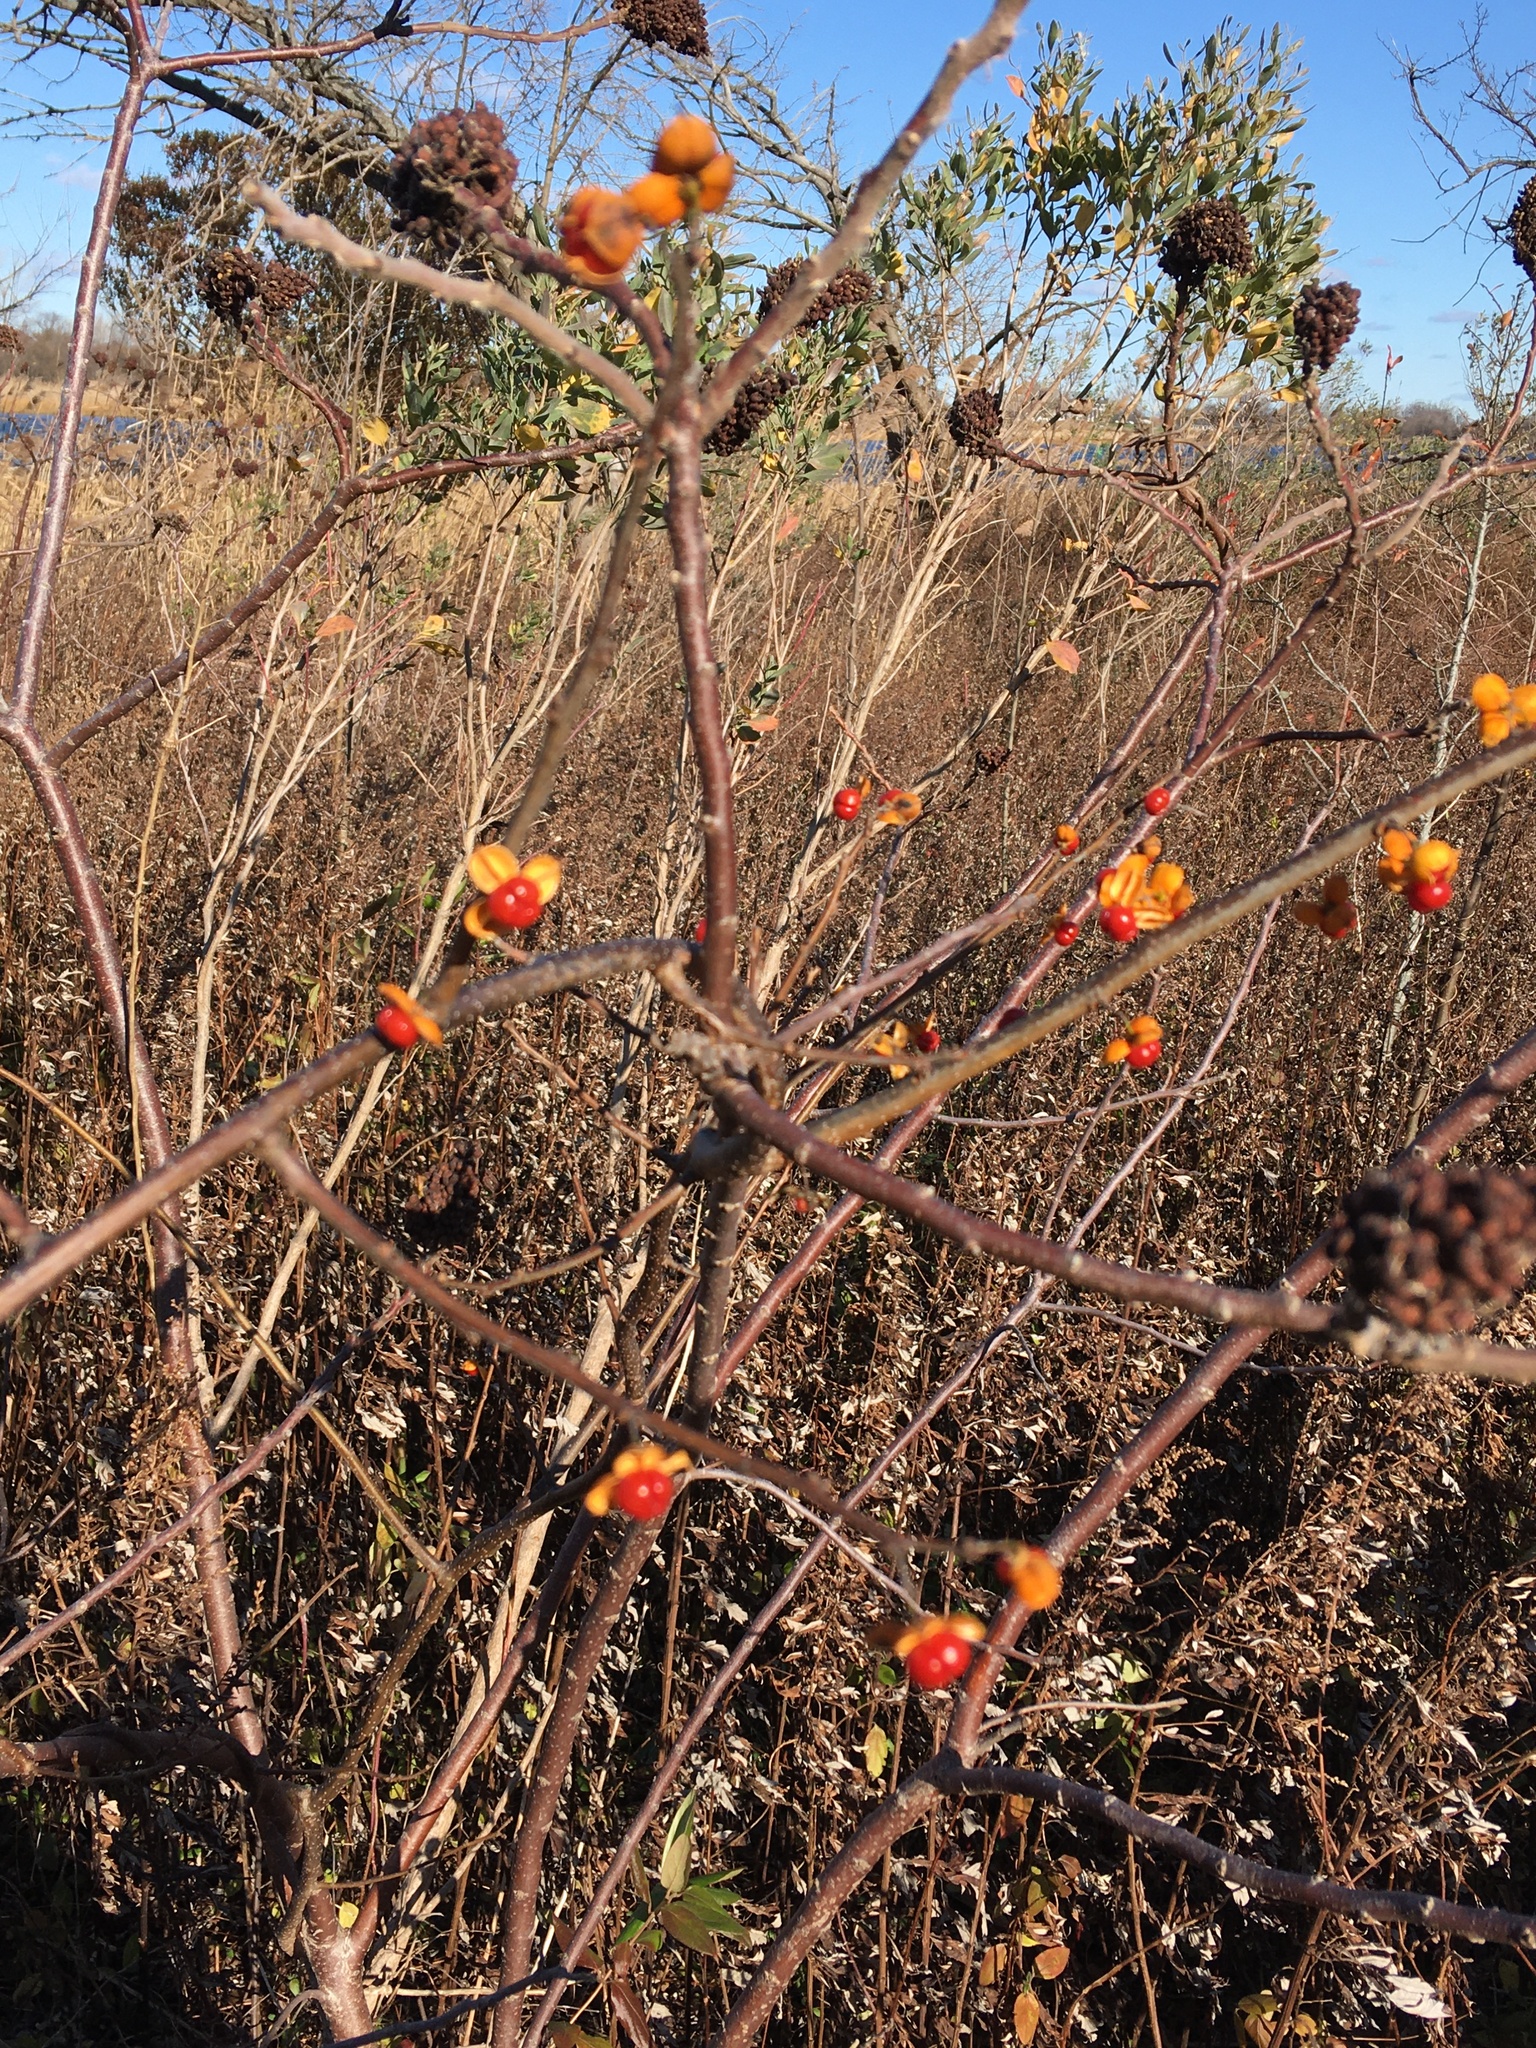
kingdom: Plantae
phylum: Tracheophyta
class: Magnoliopsida
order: Celastrales
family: Celastraceae
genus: Celastrus
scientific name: Celastrus orbiculatus
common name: Oriental bittersweet
